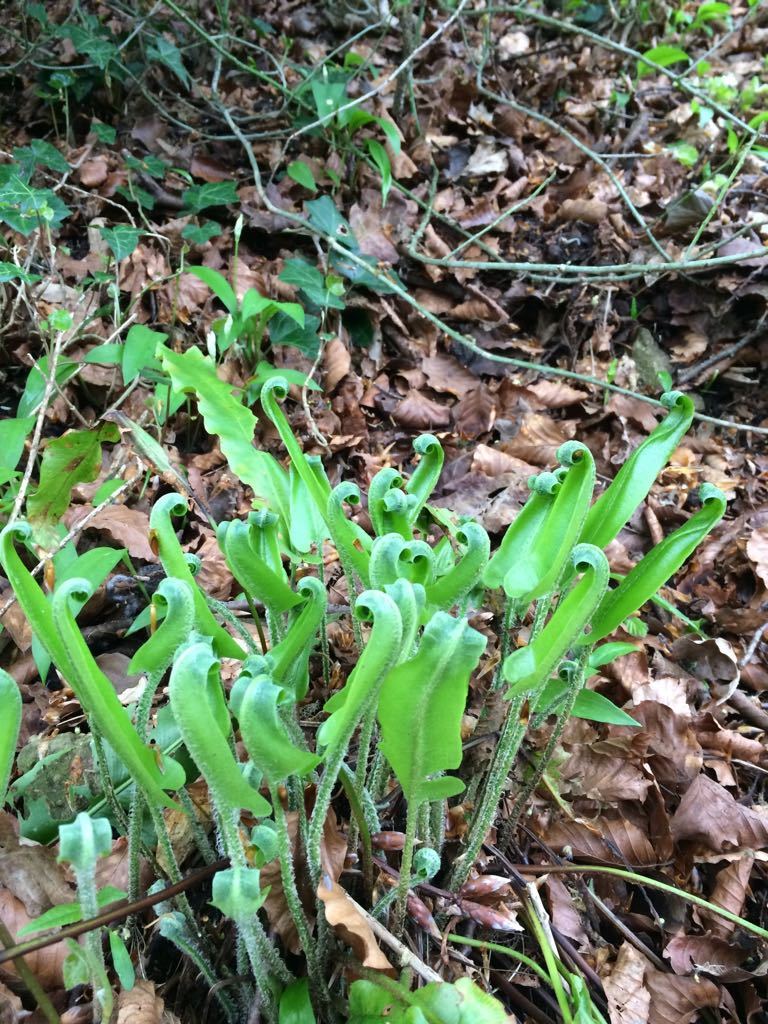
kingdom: Plantae
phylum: Tracheophyta
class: Polypodiopsida
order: Polypodiales
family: Aspleniaceae
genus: Asplenium
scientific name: Asplenium scolopendrium
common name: Hart's-tongue fern
